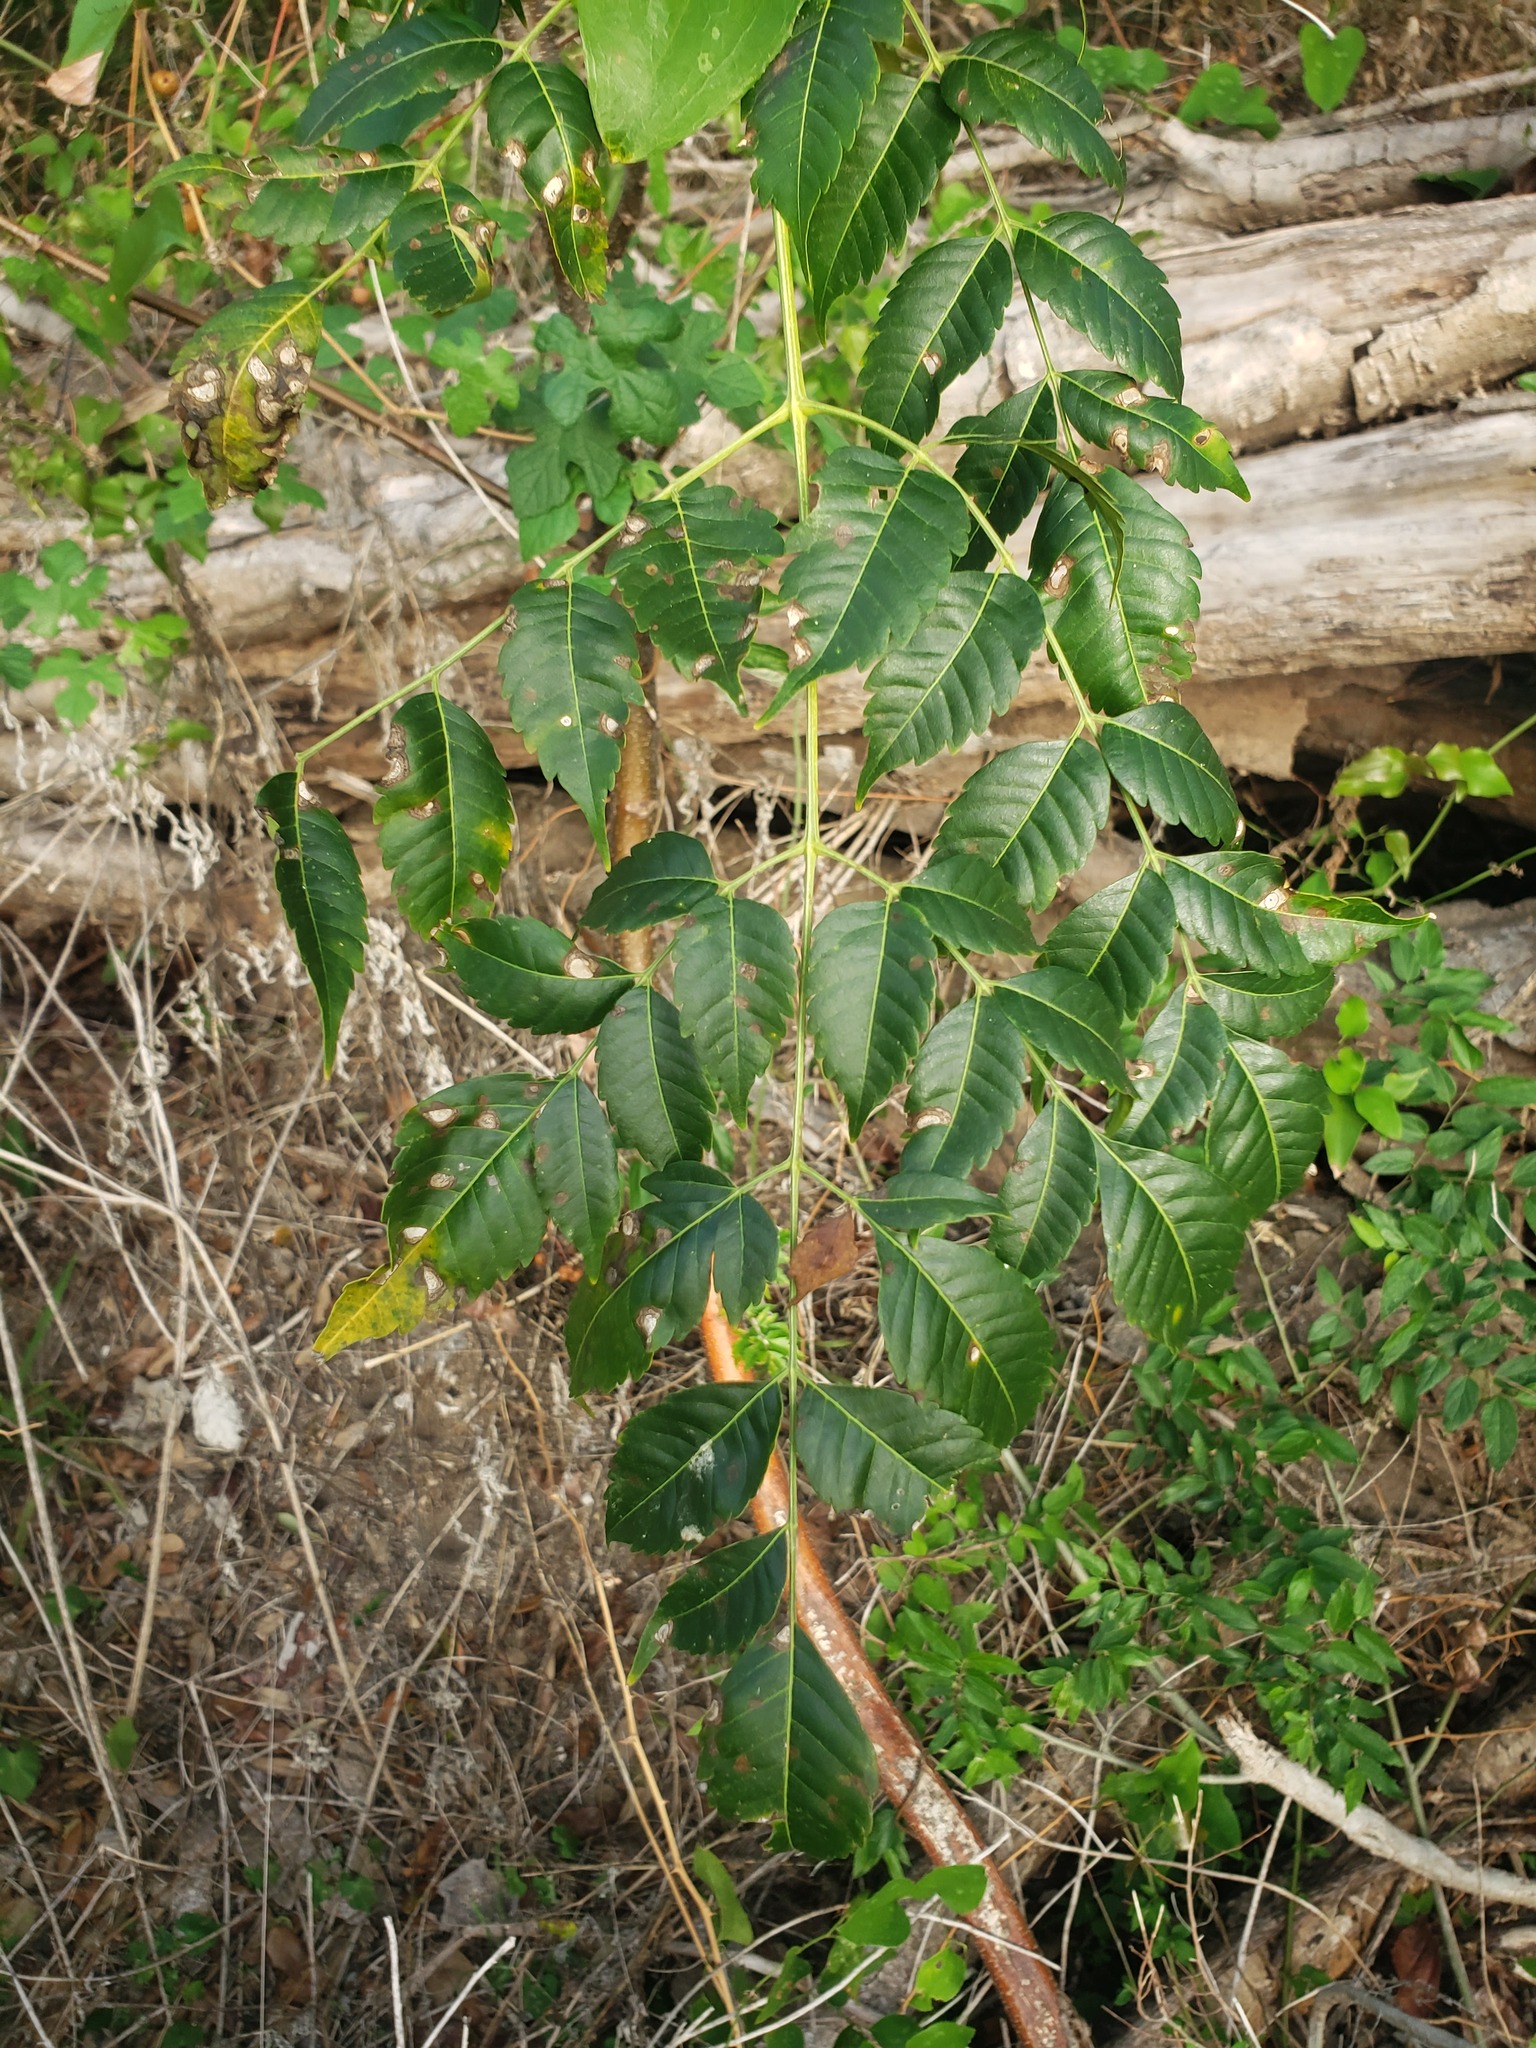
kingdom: Plantae
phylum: Tracheophyta
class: Magnoliopsida
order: Sapindales
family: Meliaceae
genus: Melia
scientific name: Melia azedarach
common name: Chinaberrytree
